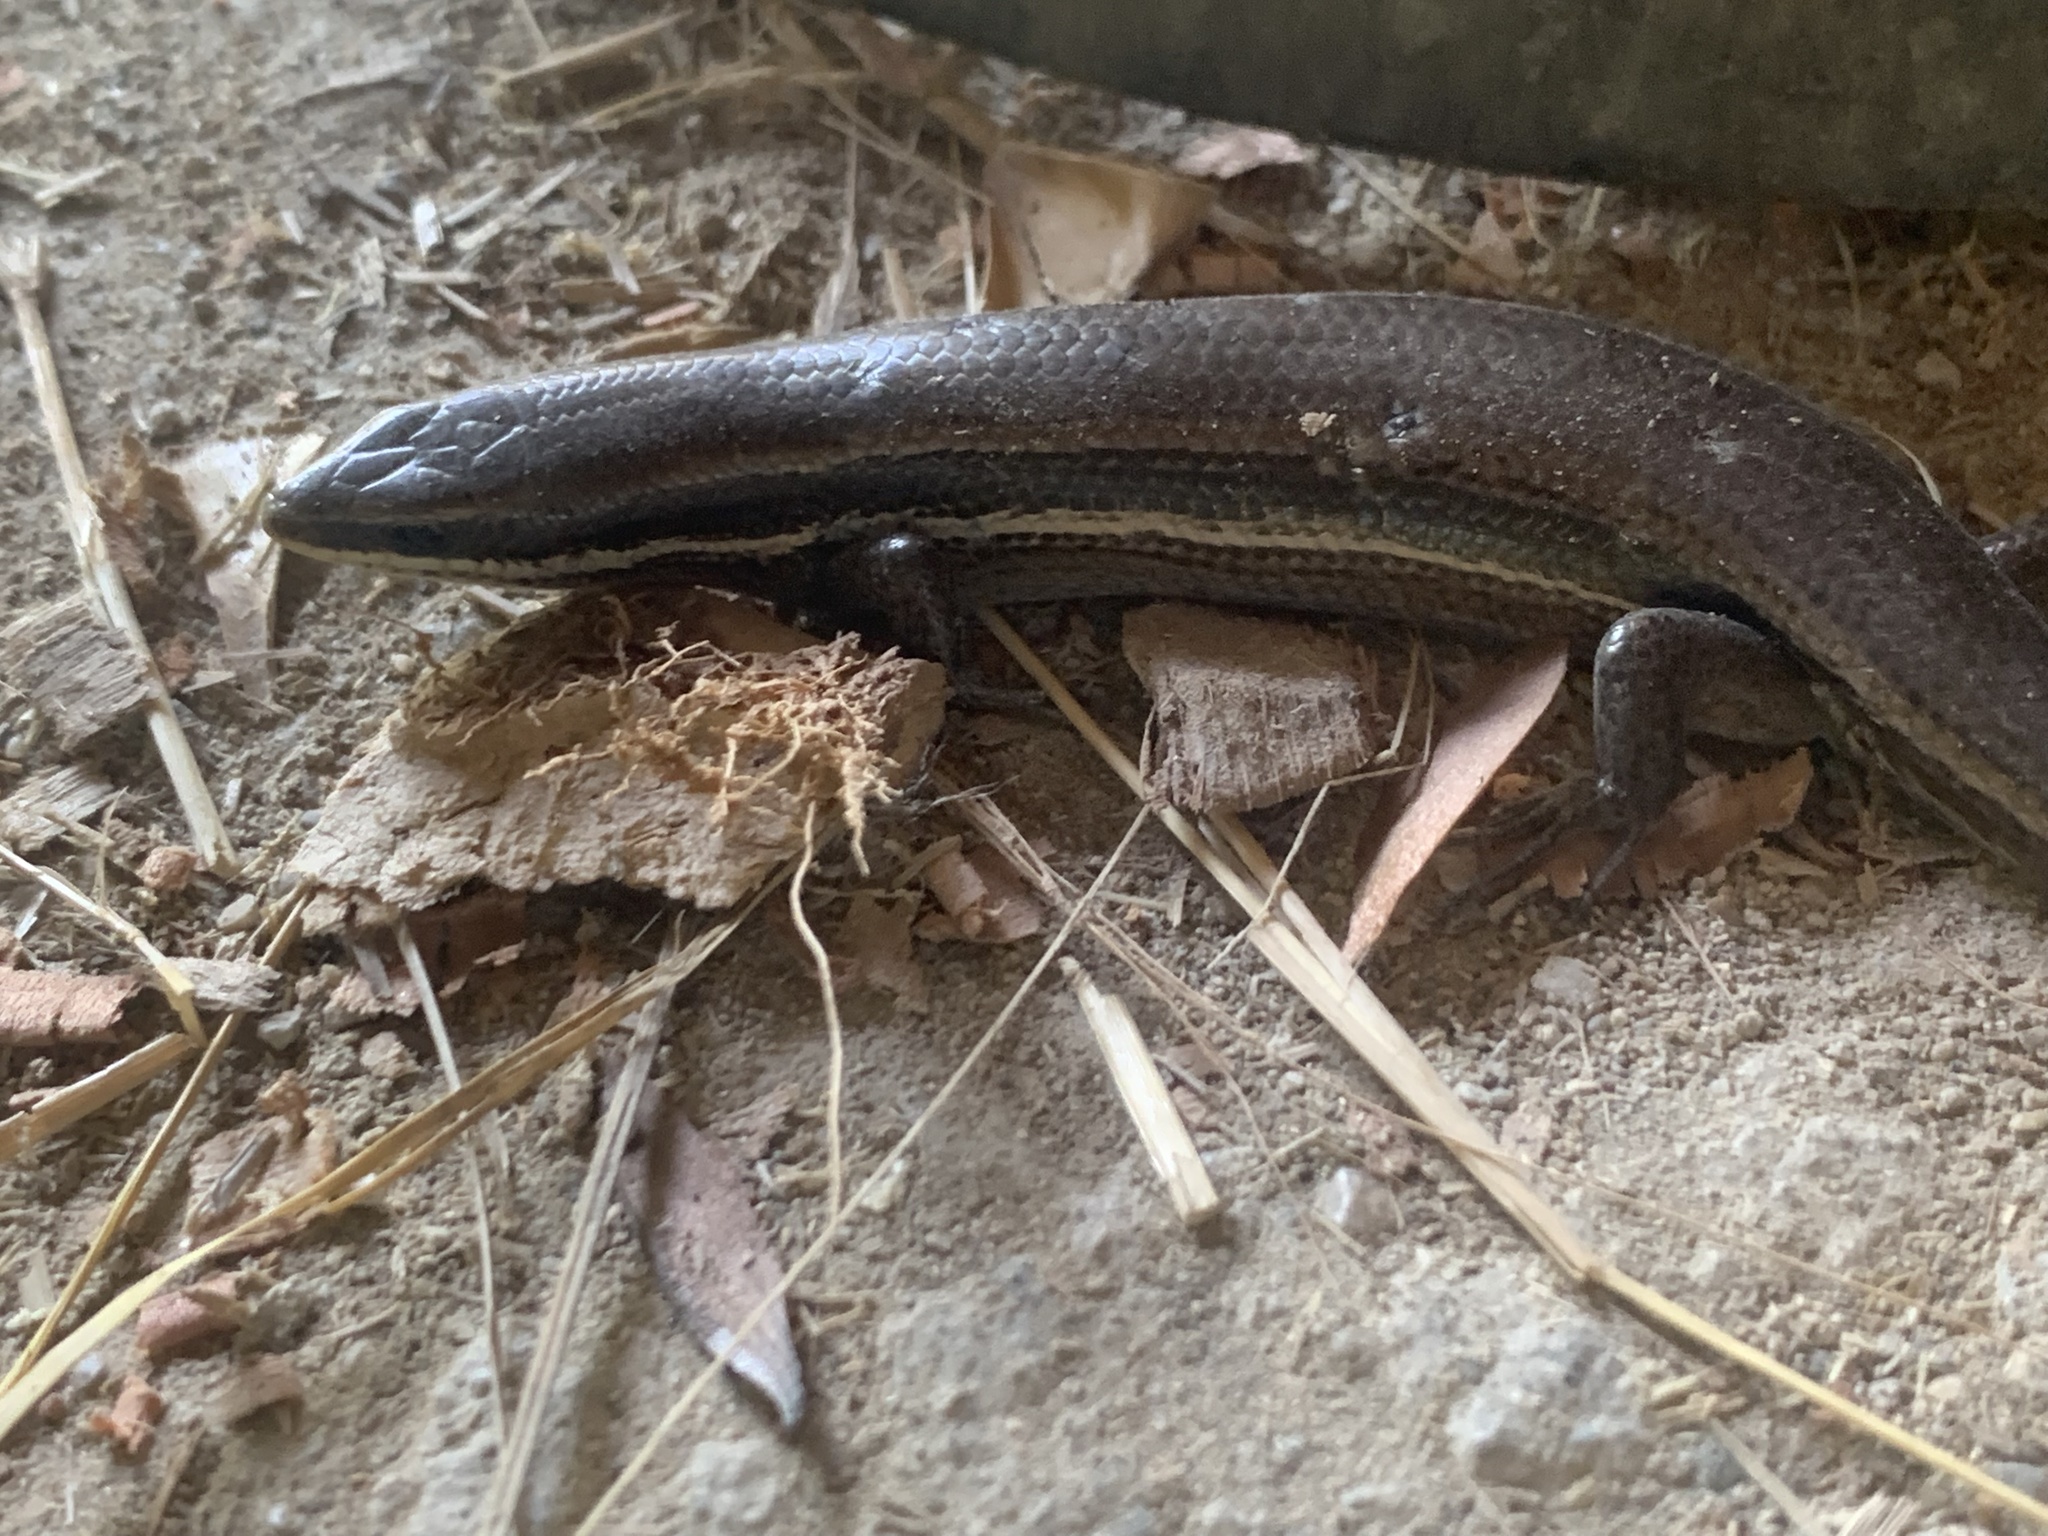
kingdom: Animalia
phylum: Chordata
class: Squamata
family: Scincidae
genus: Marisora
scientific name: Marisora lineola
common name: Mayan skink
